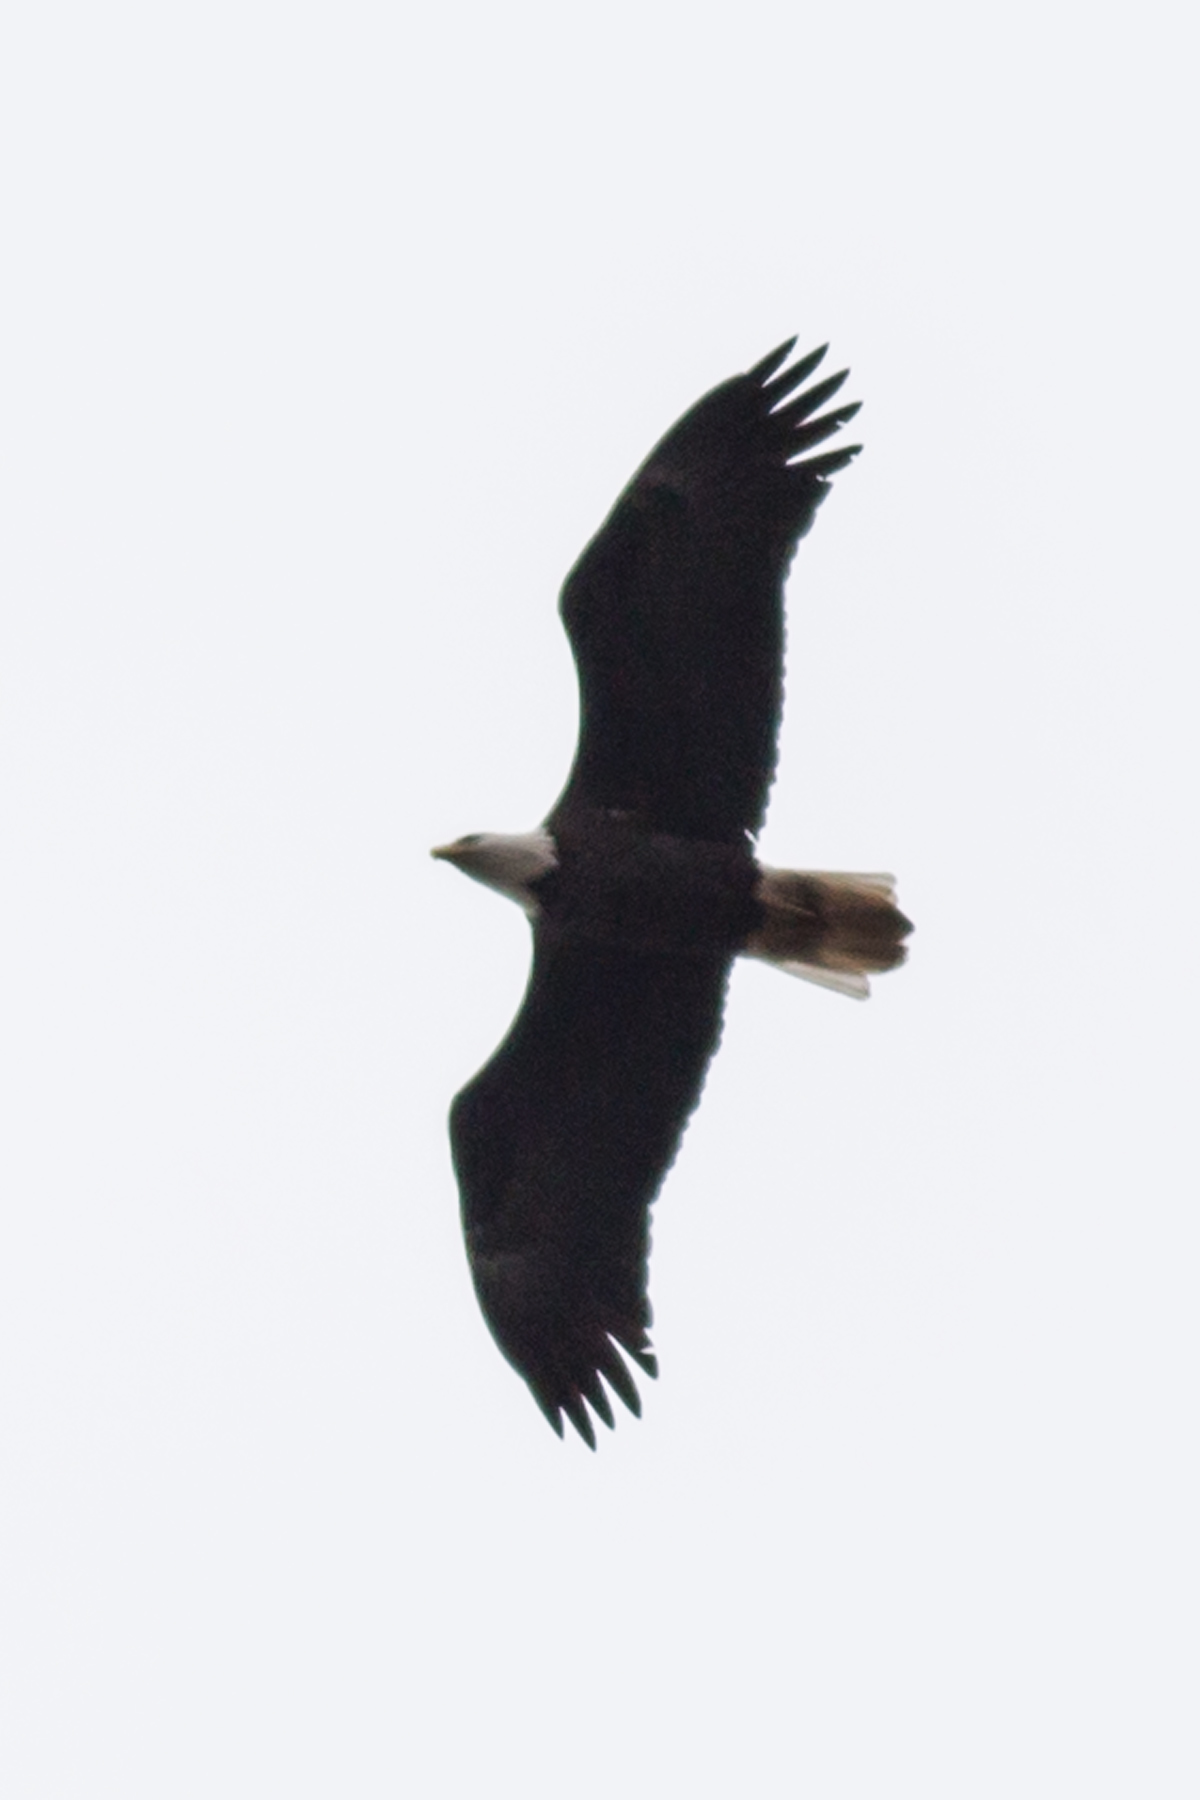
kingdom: Animalia
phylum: Chordata
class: Aves
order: Accipitriformes
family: Accipitridae
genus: Haliaeetus
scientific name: Haliaeetus leucocephalus
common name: Bald eagle
